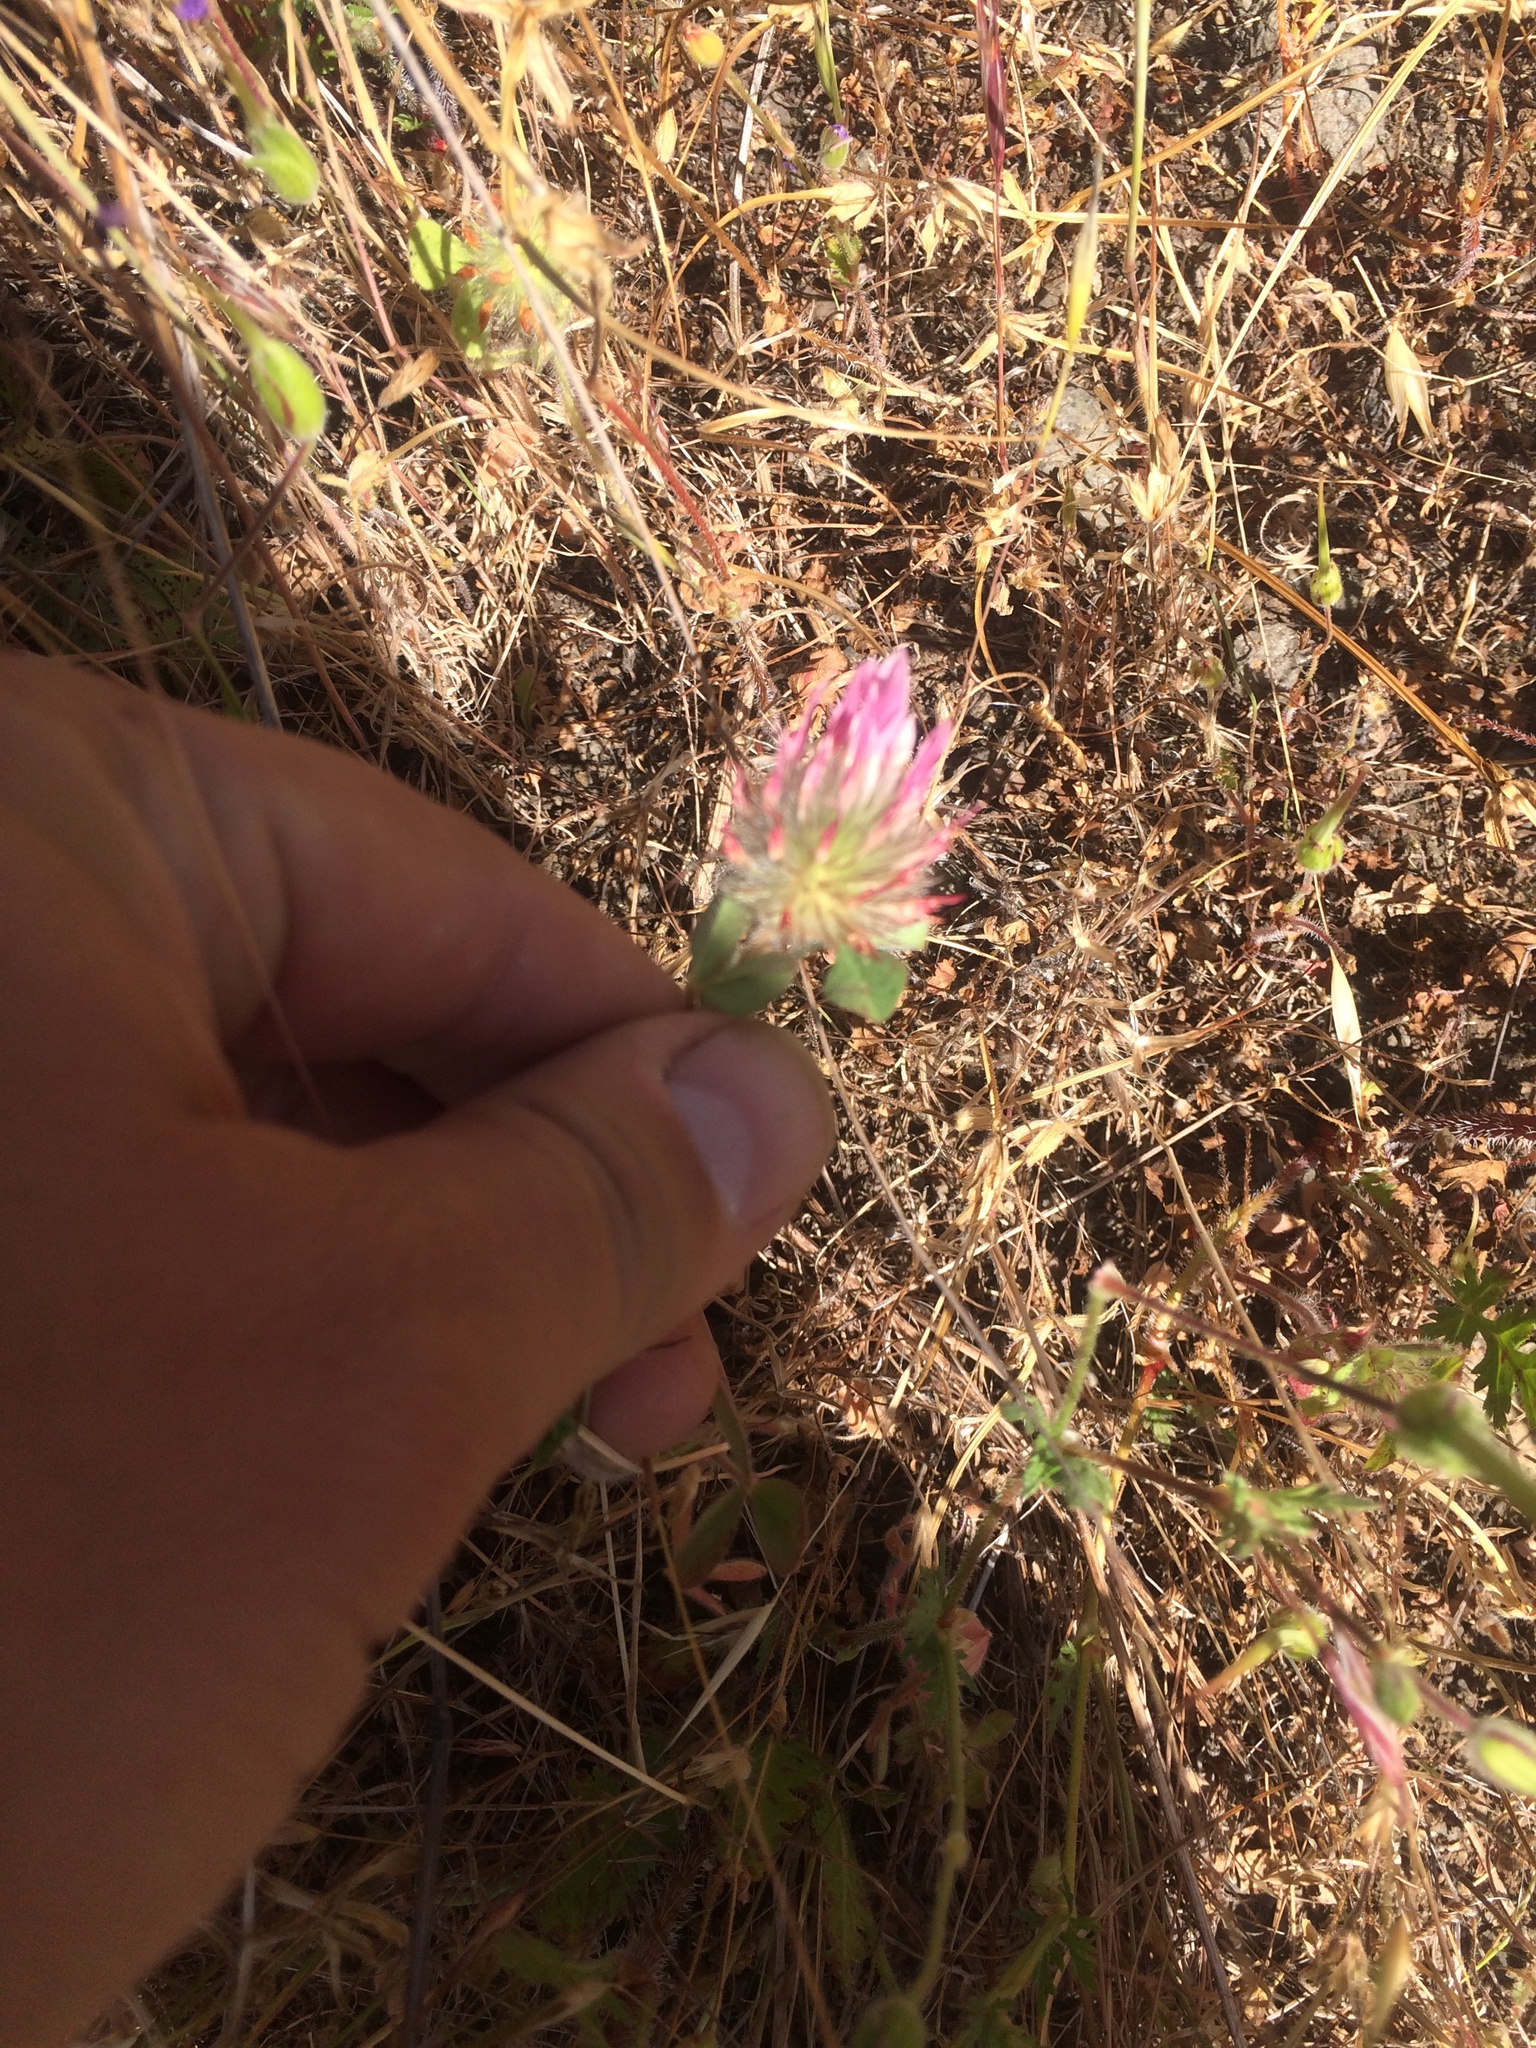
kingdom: Plantae
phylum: Tracheophyta
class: Magnoliopsida
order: Fabales
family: Fabaceae
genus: Trifolium
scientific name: Trifolium hirtum
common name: Rose clover
